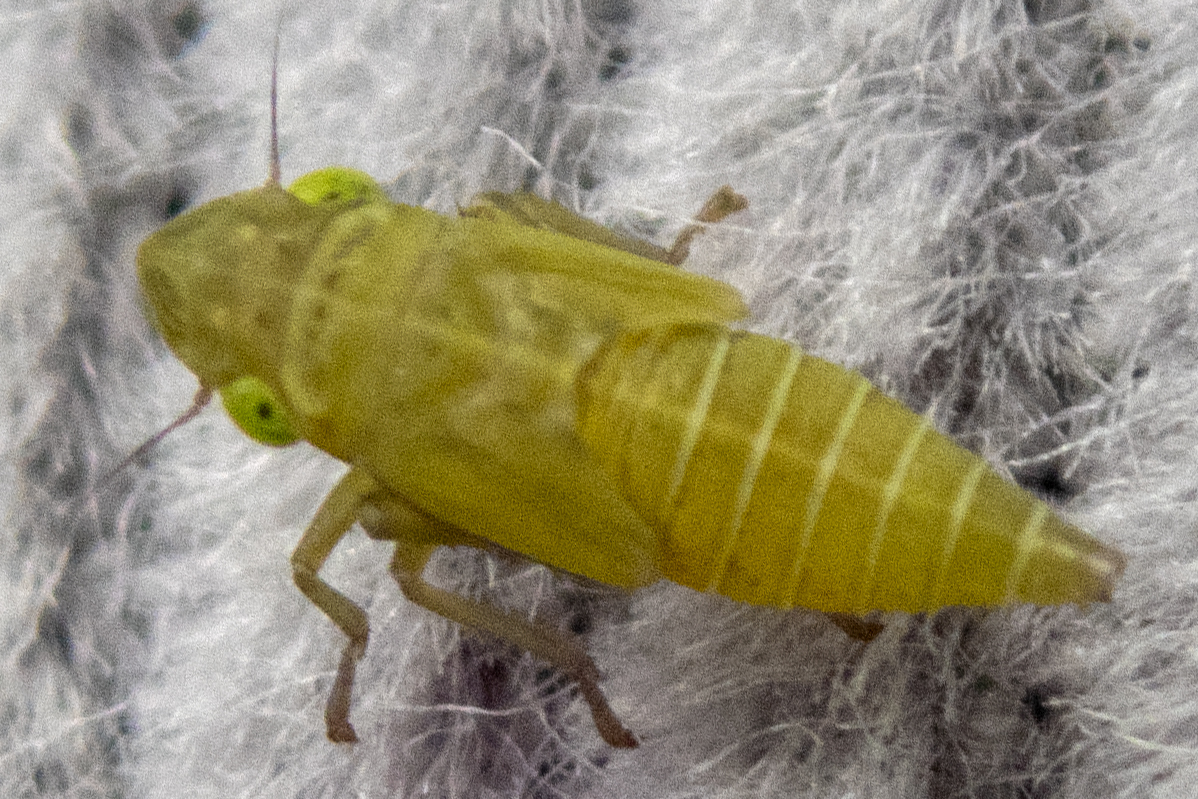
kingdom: Animalia
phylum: Arthropoda
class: Insecta
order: Hemiptera
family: Cicadellidae
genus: Helochara
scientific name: Helochara communis
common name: Bog leafhopper
